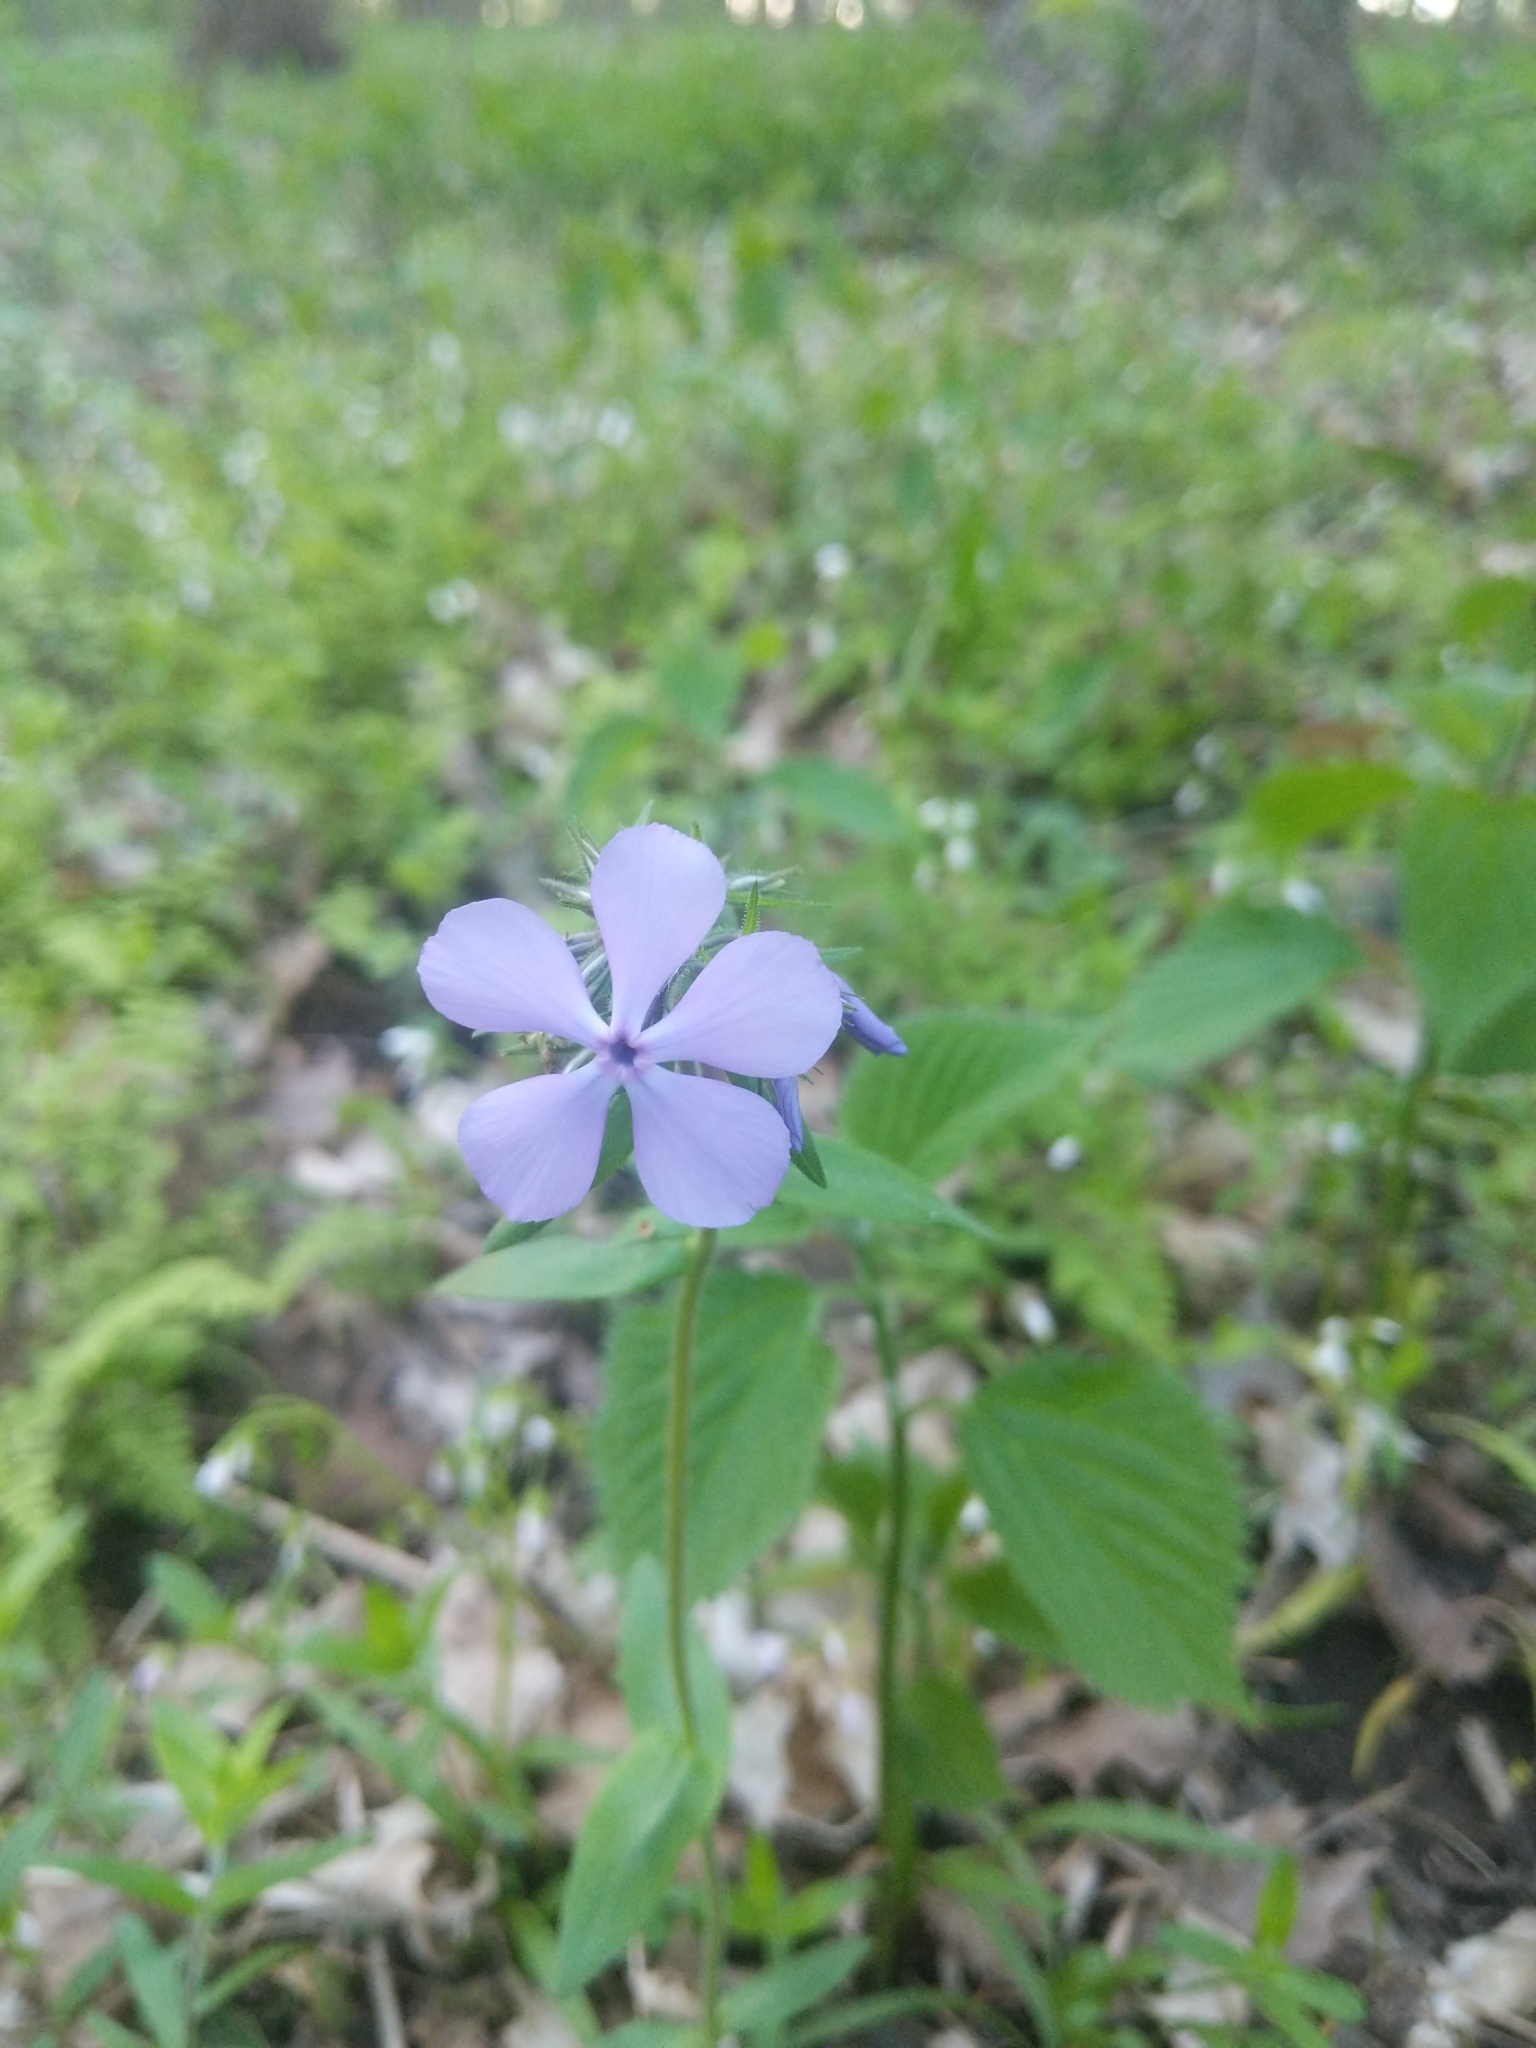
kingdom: Plantae
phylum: Tracheophyta
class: Magnoliopsida
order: Ericales
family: Polemoniaceae
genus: Phlox
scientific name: Phlox divaricata
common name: Blue phlox
